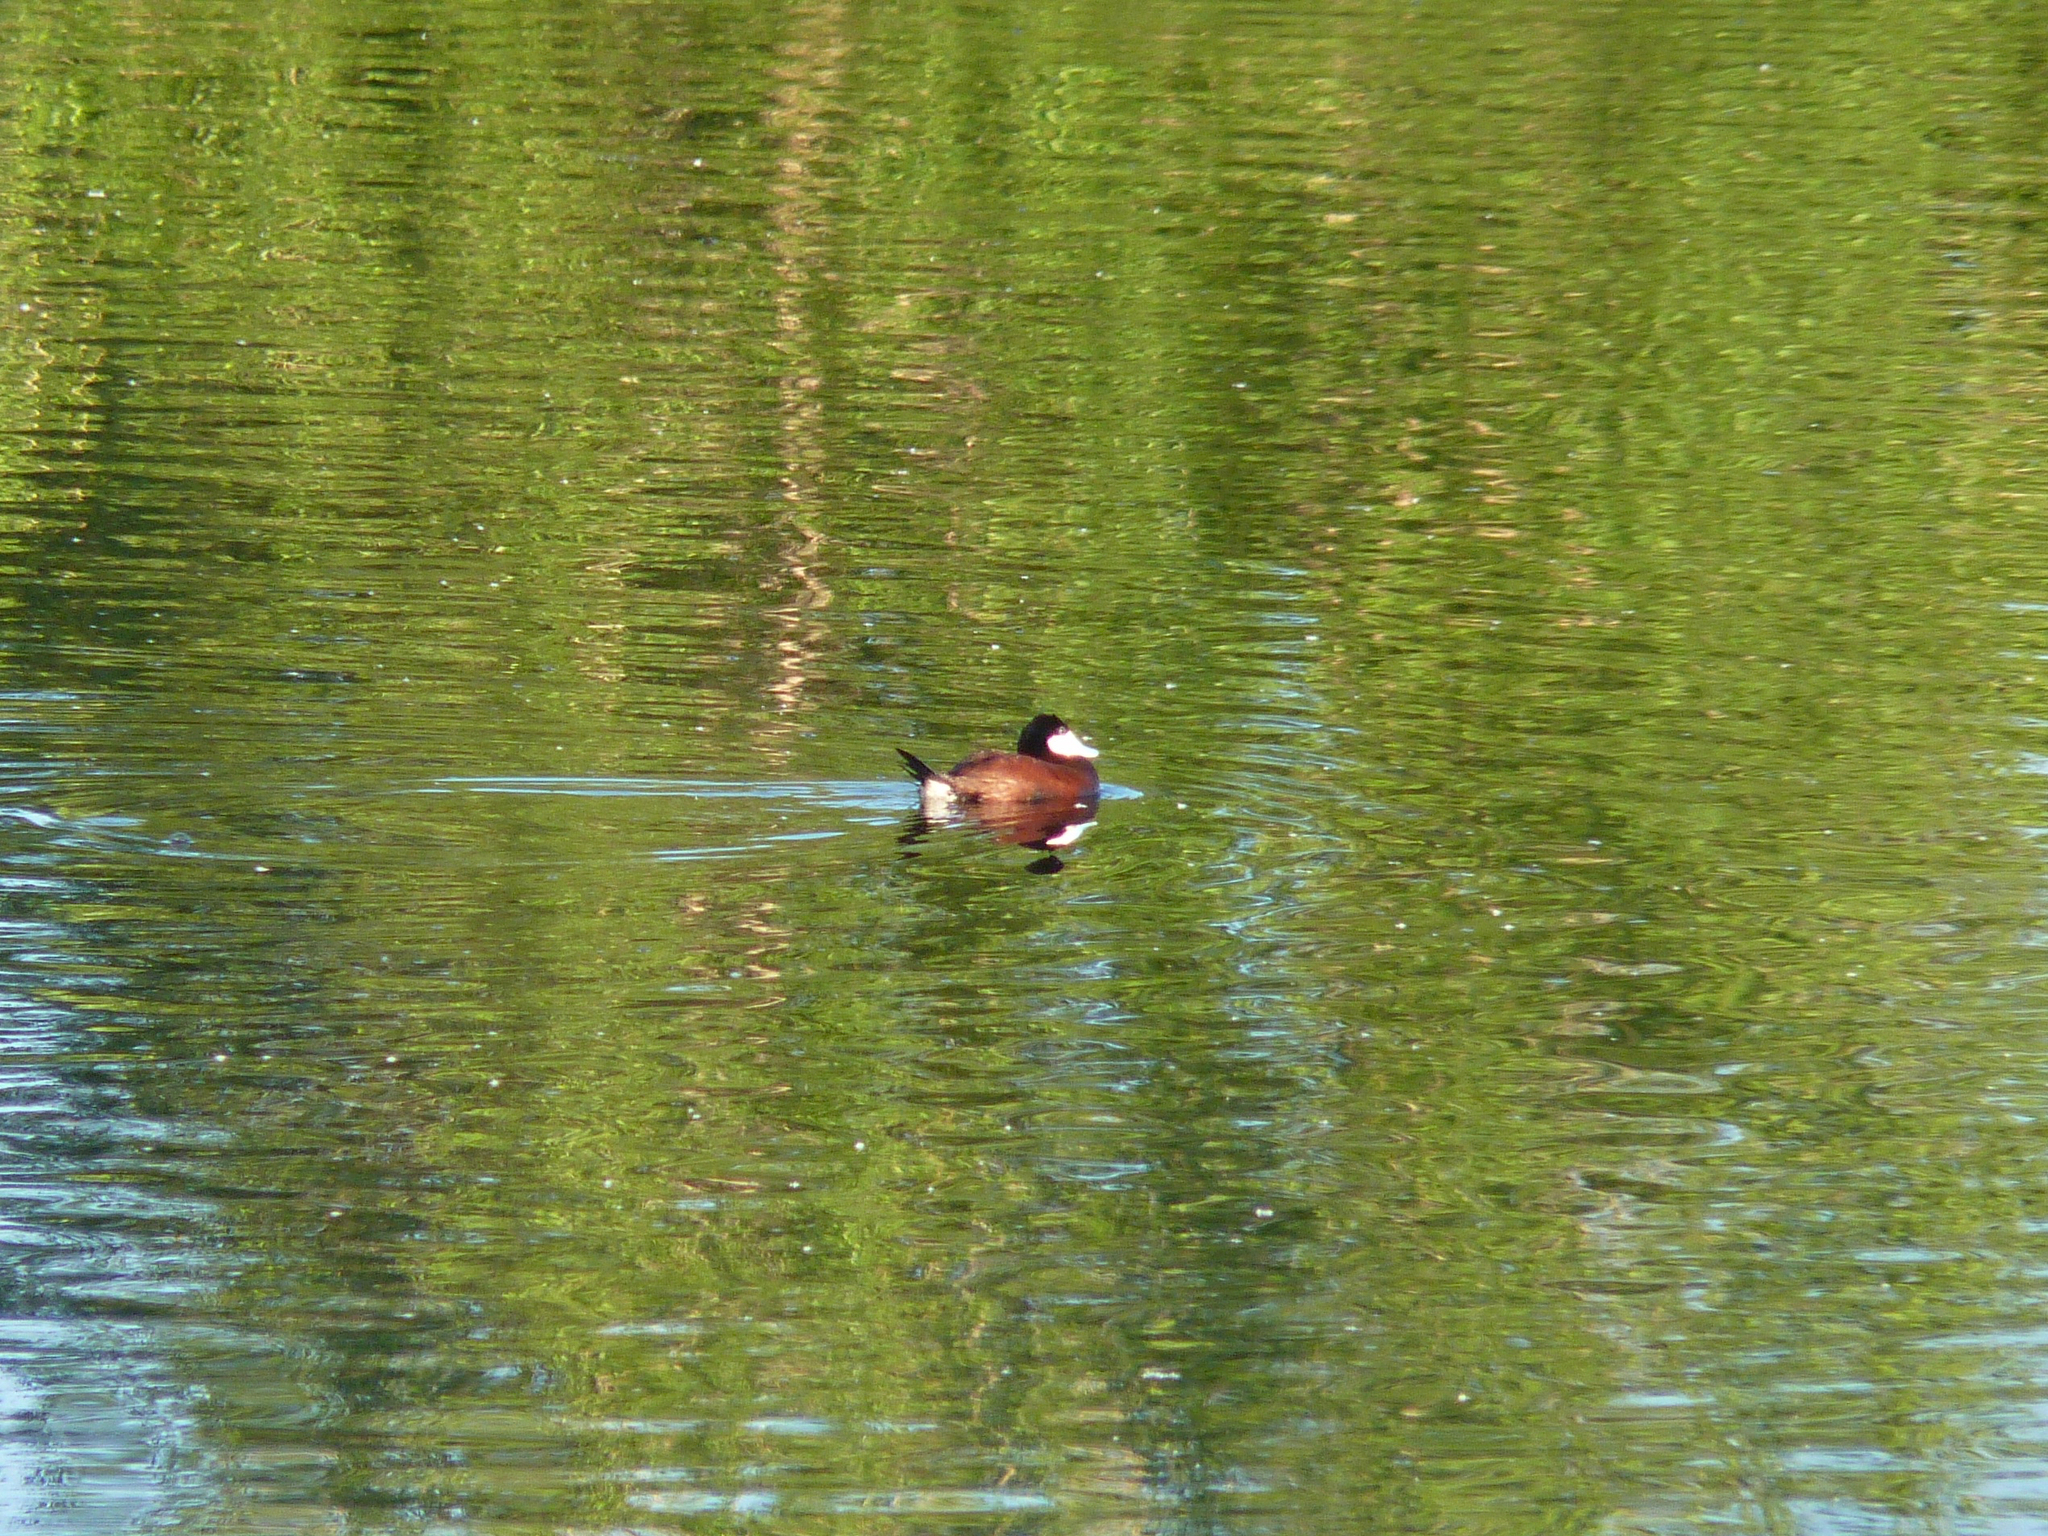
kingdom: Animalia
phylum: Chordata
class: Aves
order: Anseriformes
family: Anatidae
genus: Oxyura
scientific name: Oxyura jamaicensis
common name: Ruddy duck
